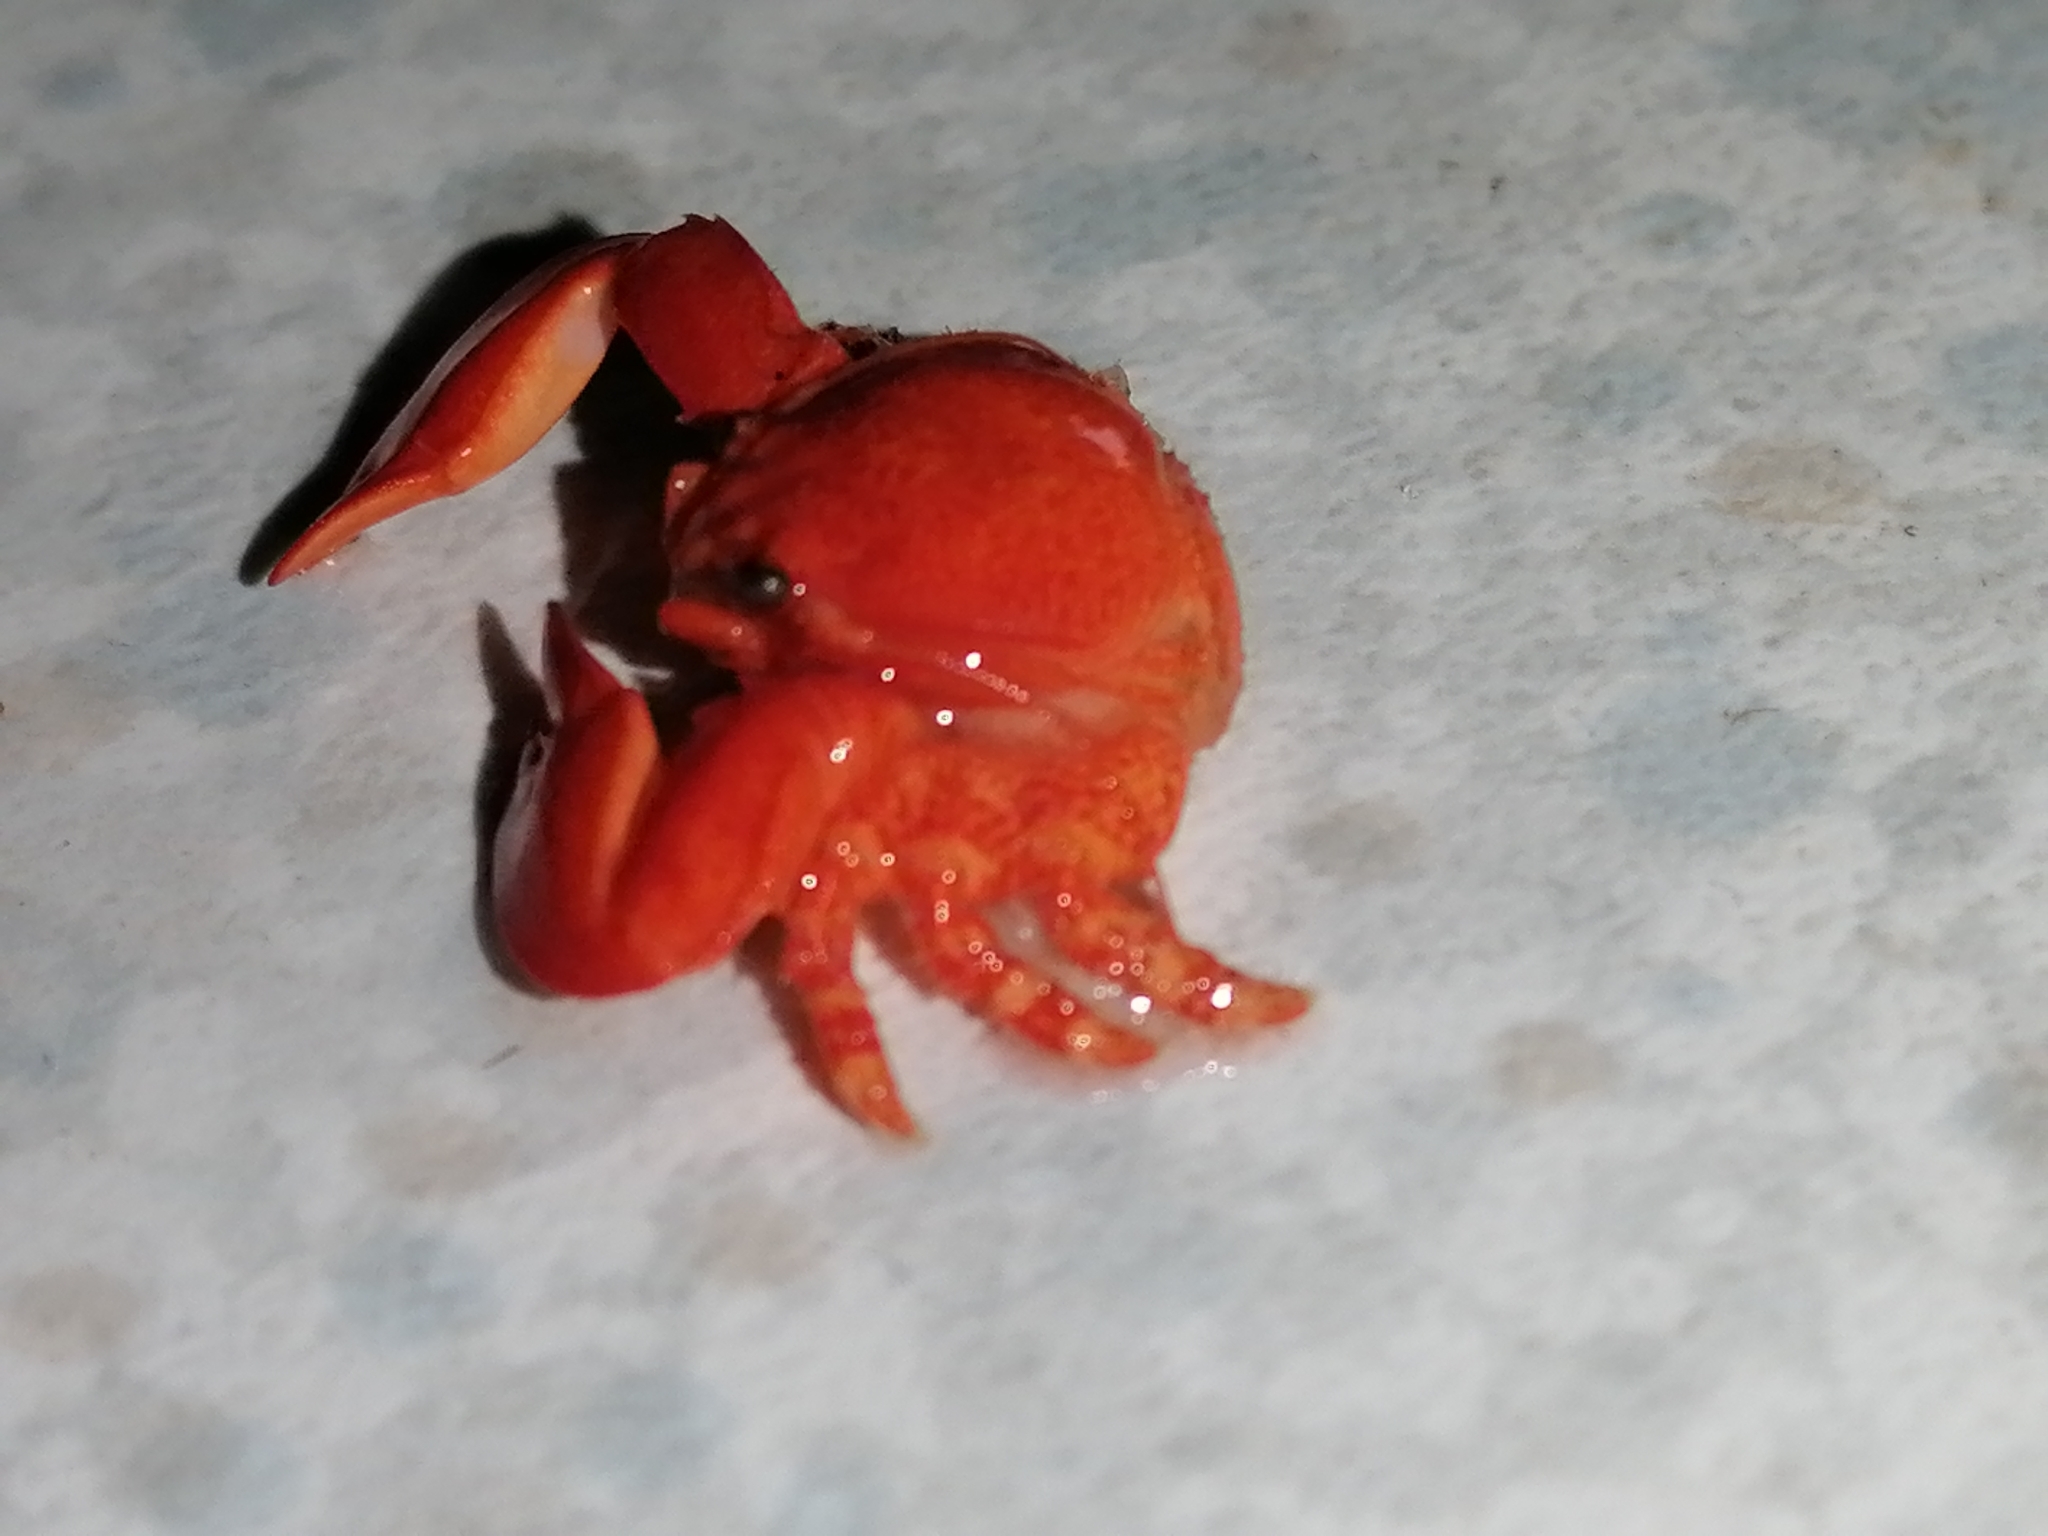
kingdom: Animalia
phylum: Arthropoda
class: Malacostraca
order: Decapoda
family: Porcellanidae
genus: Petrolisthes
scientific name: Petrolisthes elongatus
